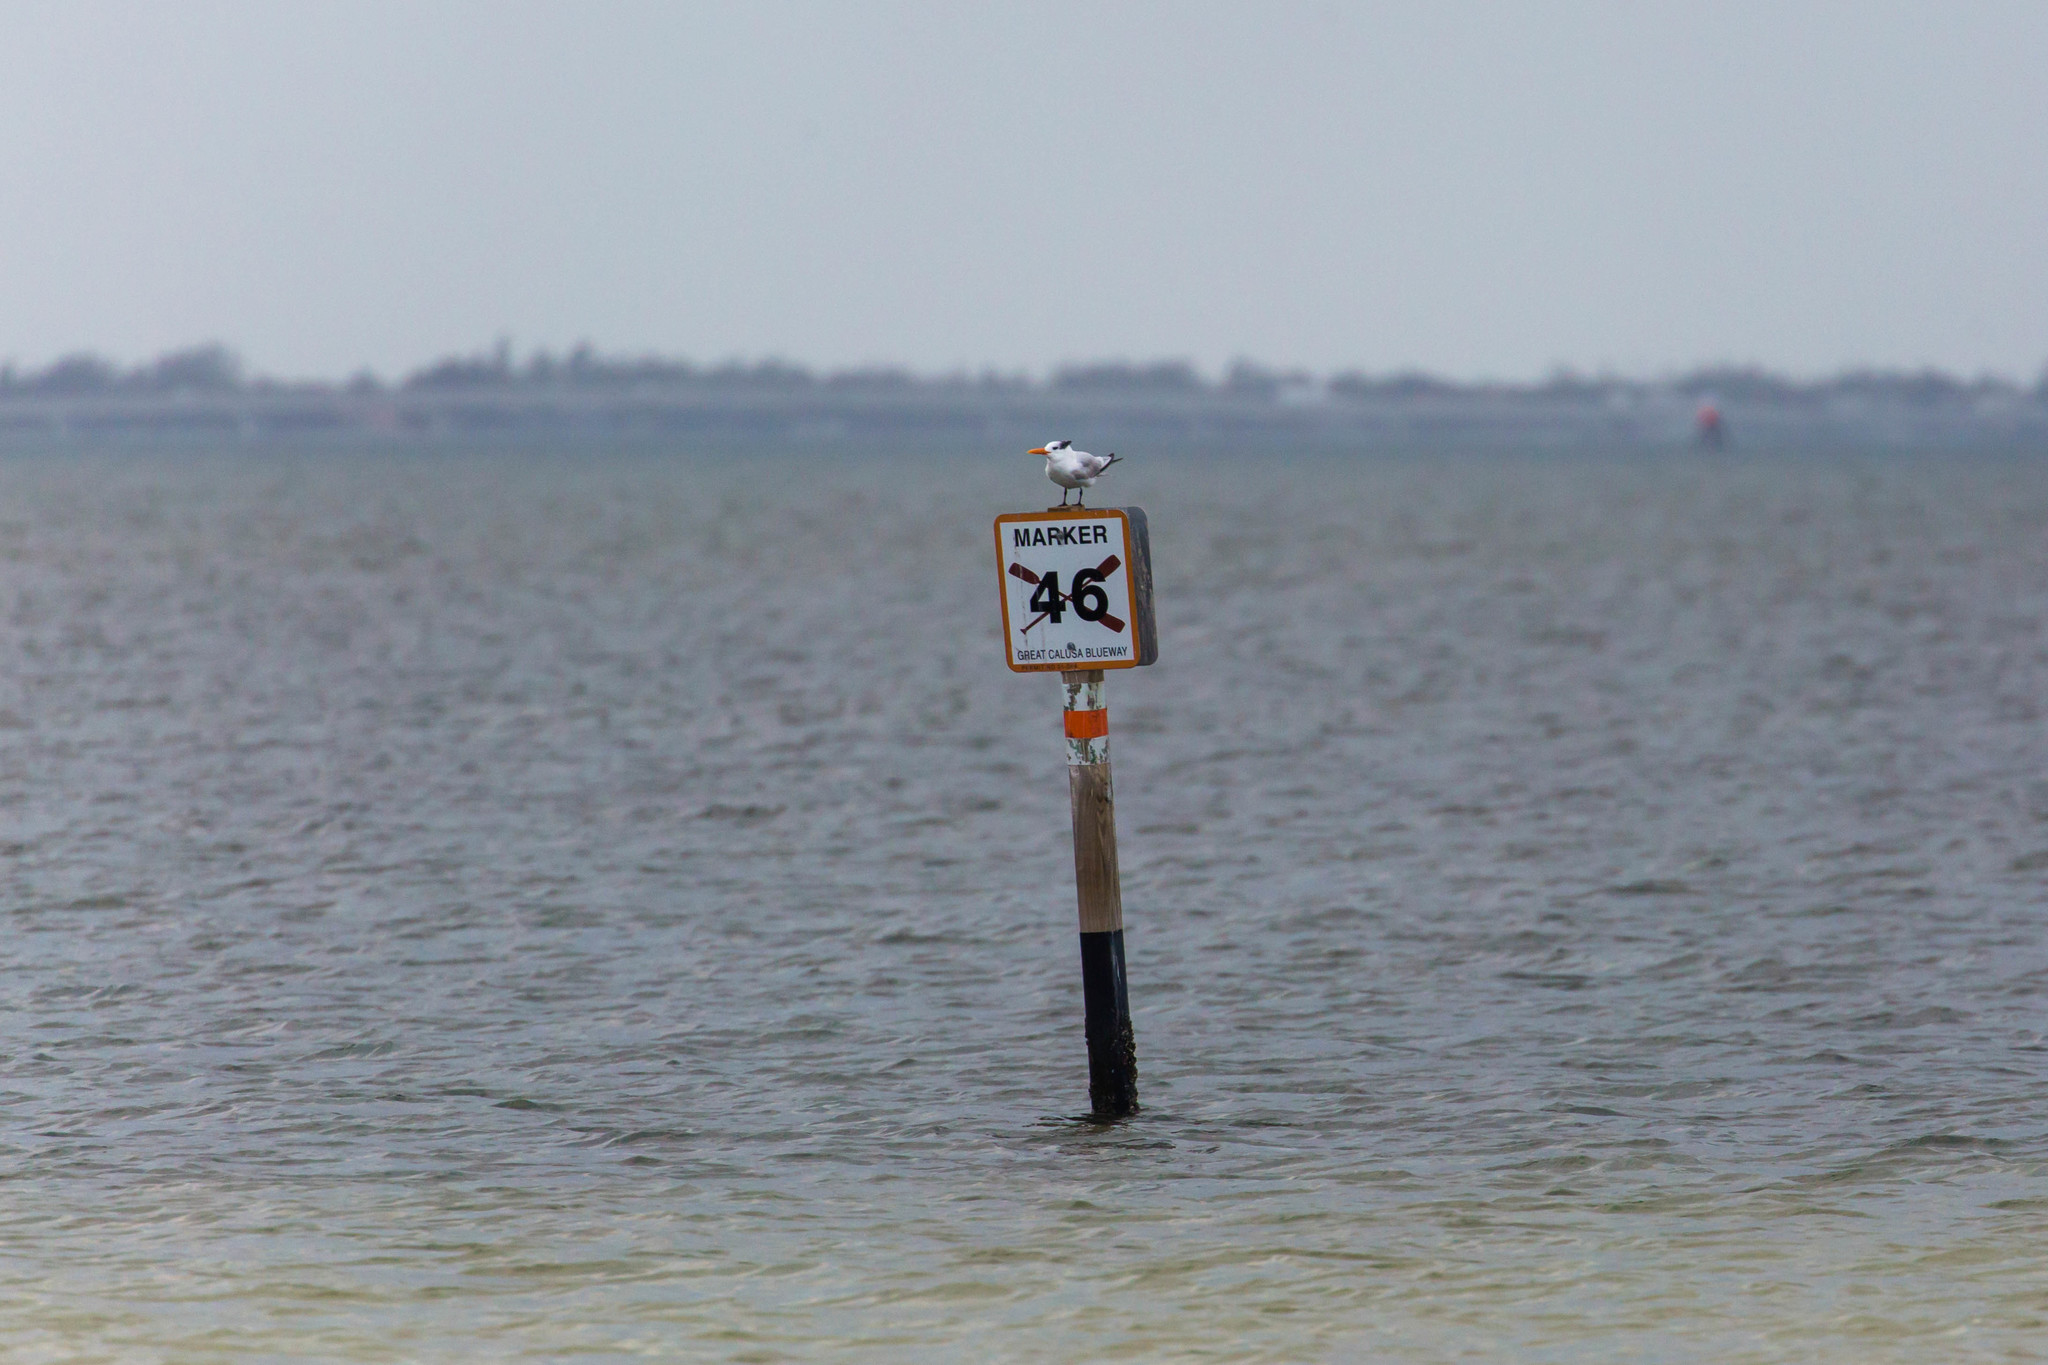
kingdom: Animalia
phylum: Chordata
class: Aves
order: Charadriiformes
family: Laridae
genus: Thalasseus
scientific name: Thalasseus maximus
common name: Royal tern
